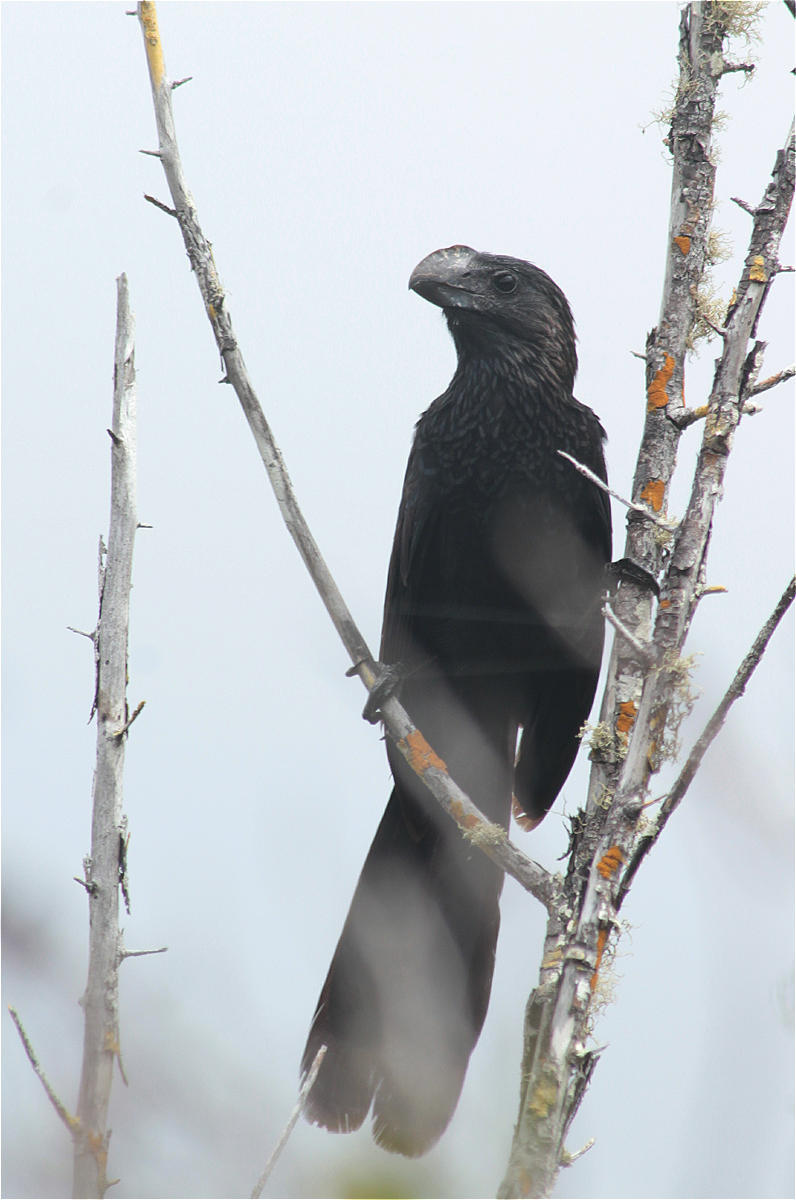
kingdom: Animalia
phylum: Chordata
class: Aves
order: Cuculiformes
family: Cuculidae
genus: Crotophaga
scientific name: Crotophaga ani
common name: Smooth-billed ani
